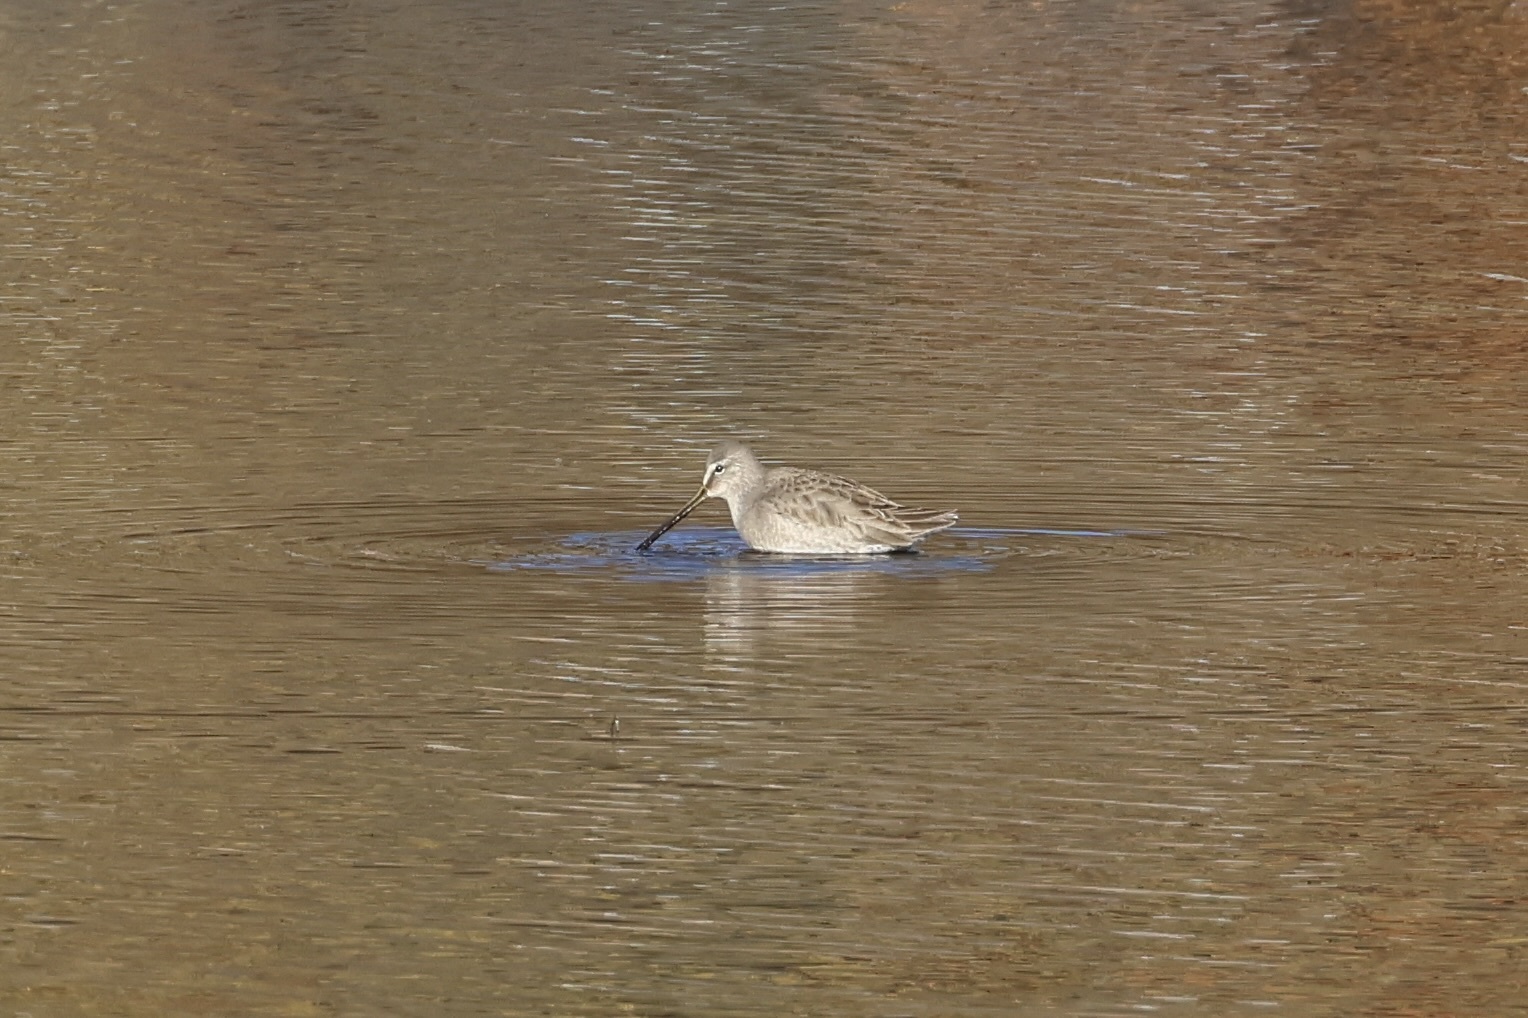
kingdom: Animalia
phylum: Chordata
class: Aves
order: Charadriiformes
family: Scolopacidae
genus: Limnodromus
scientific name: Limnodromus scolopaceus
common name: Long-billed dowitcher
